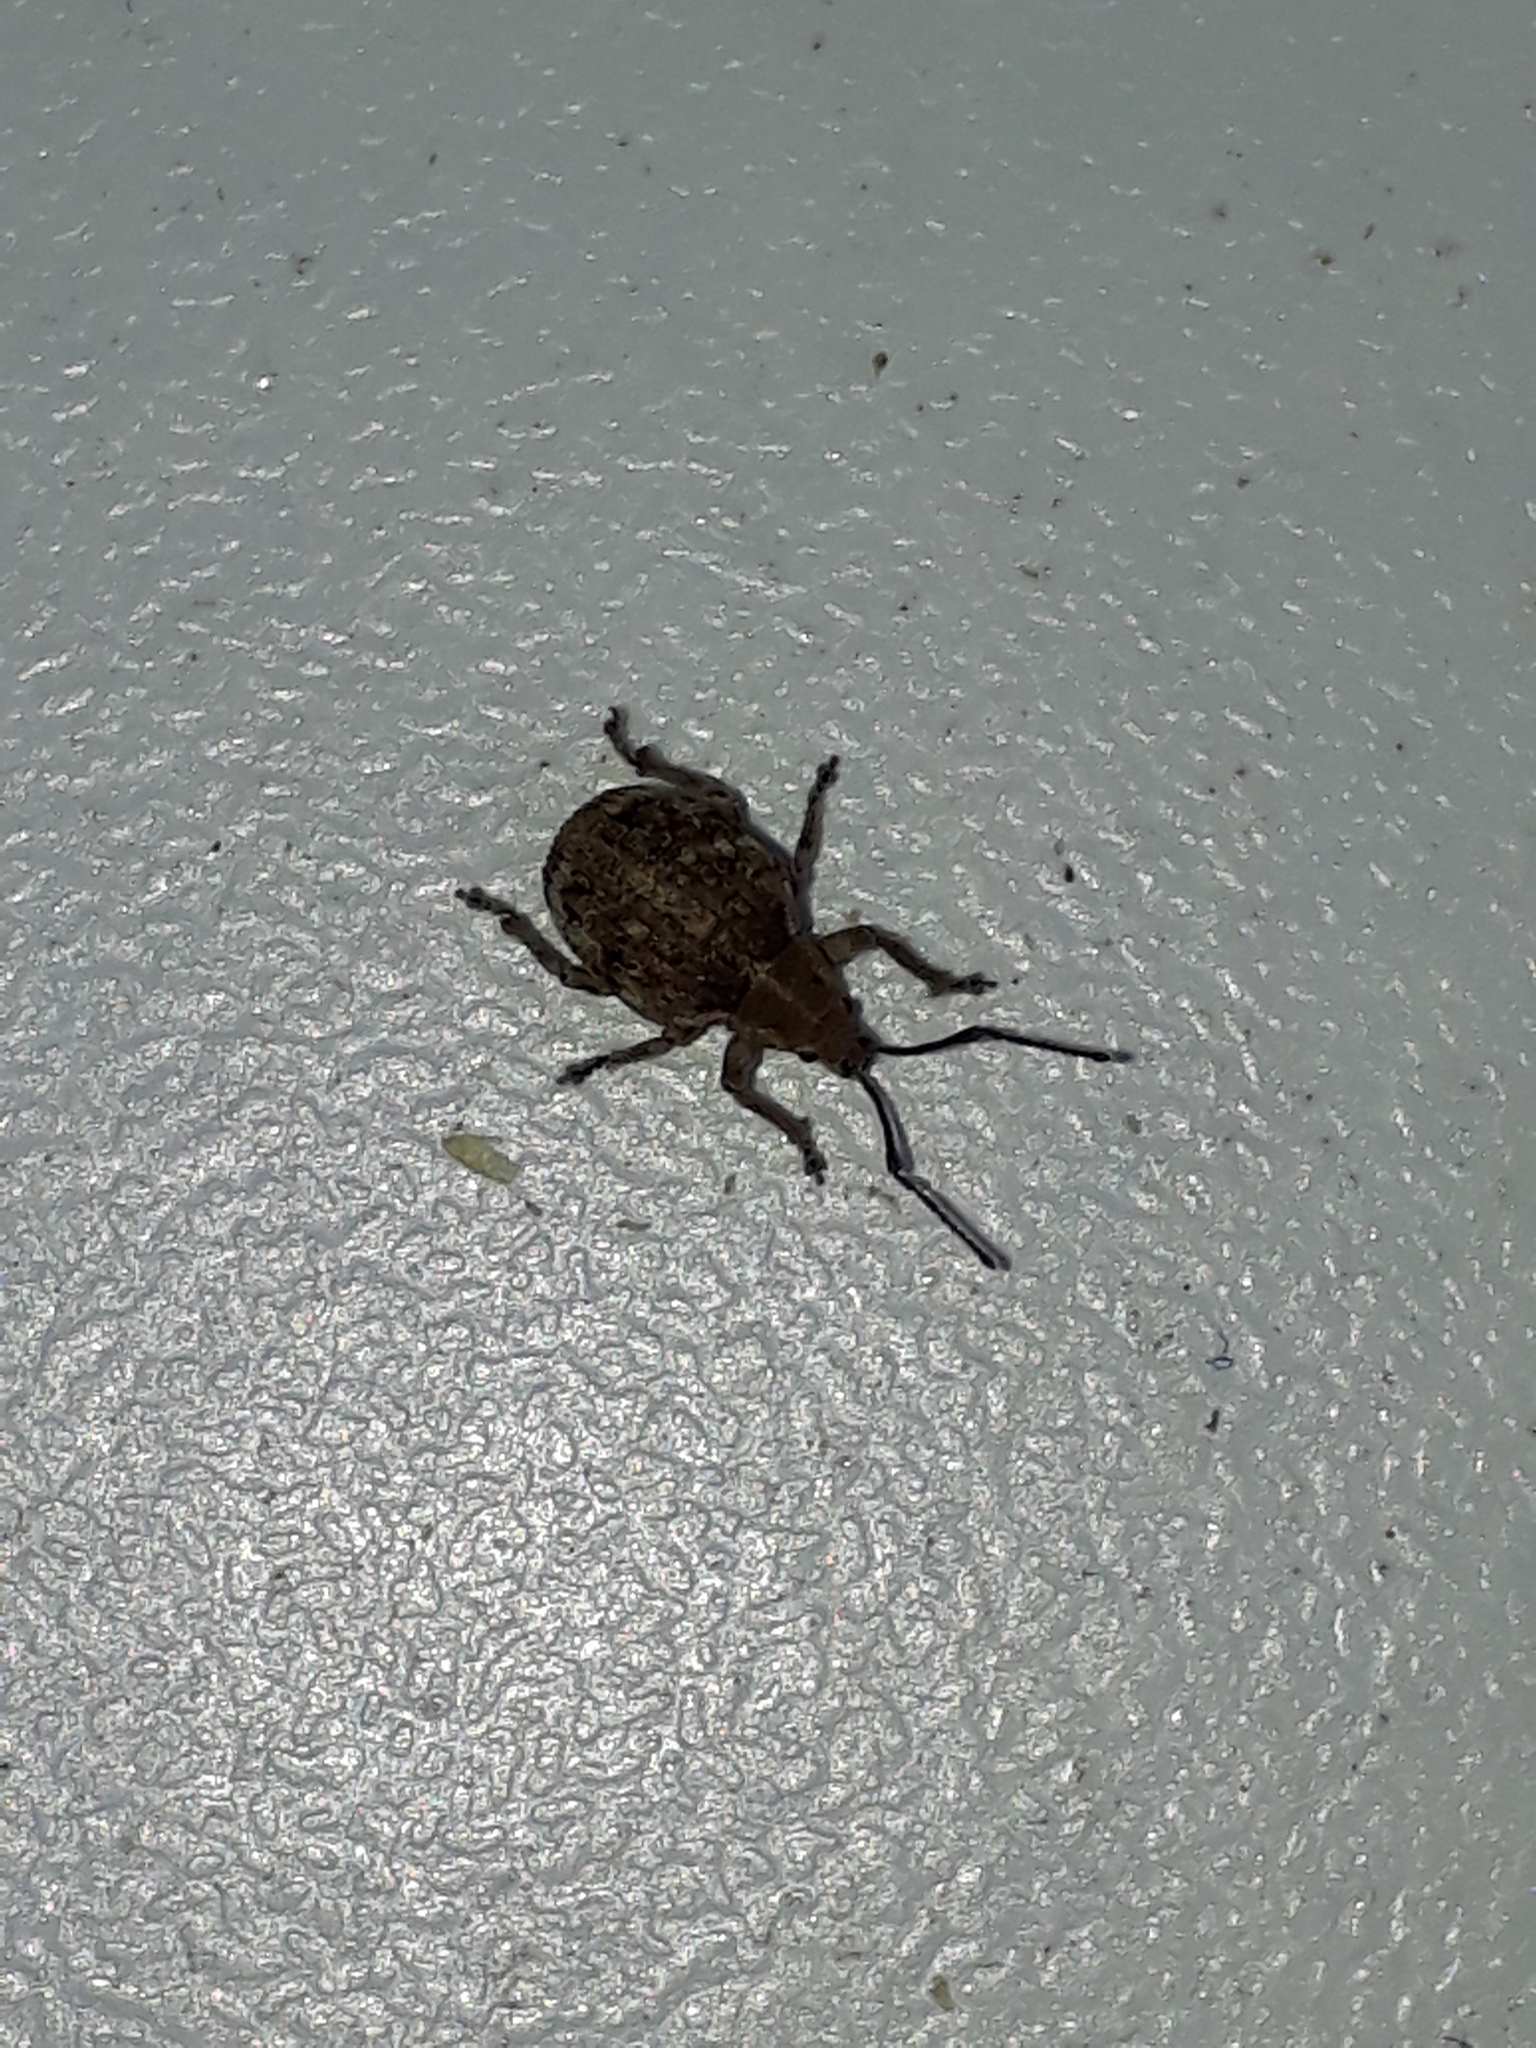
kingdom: Animalia
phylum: Arthropoda
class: Insecta
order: Coleoptera
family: Curculionidae
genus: Ellimenistes
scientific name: Ellimenistes laesicollis
